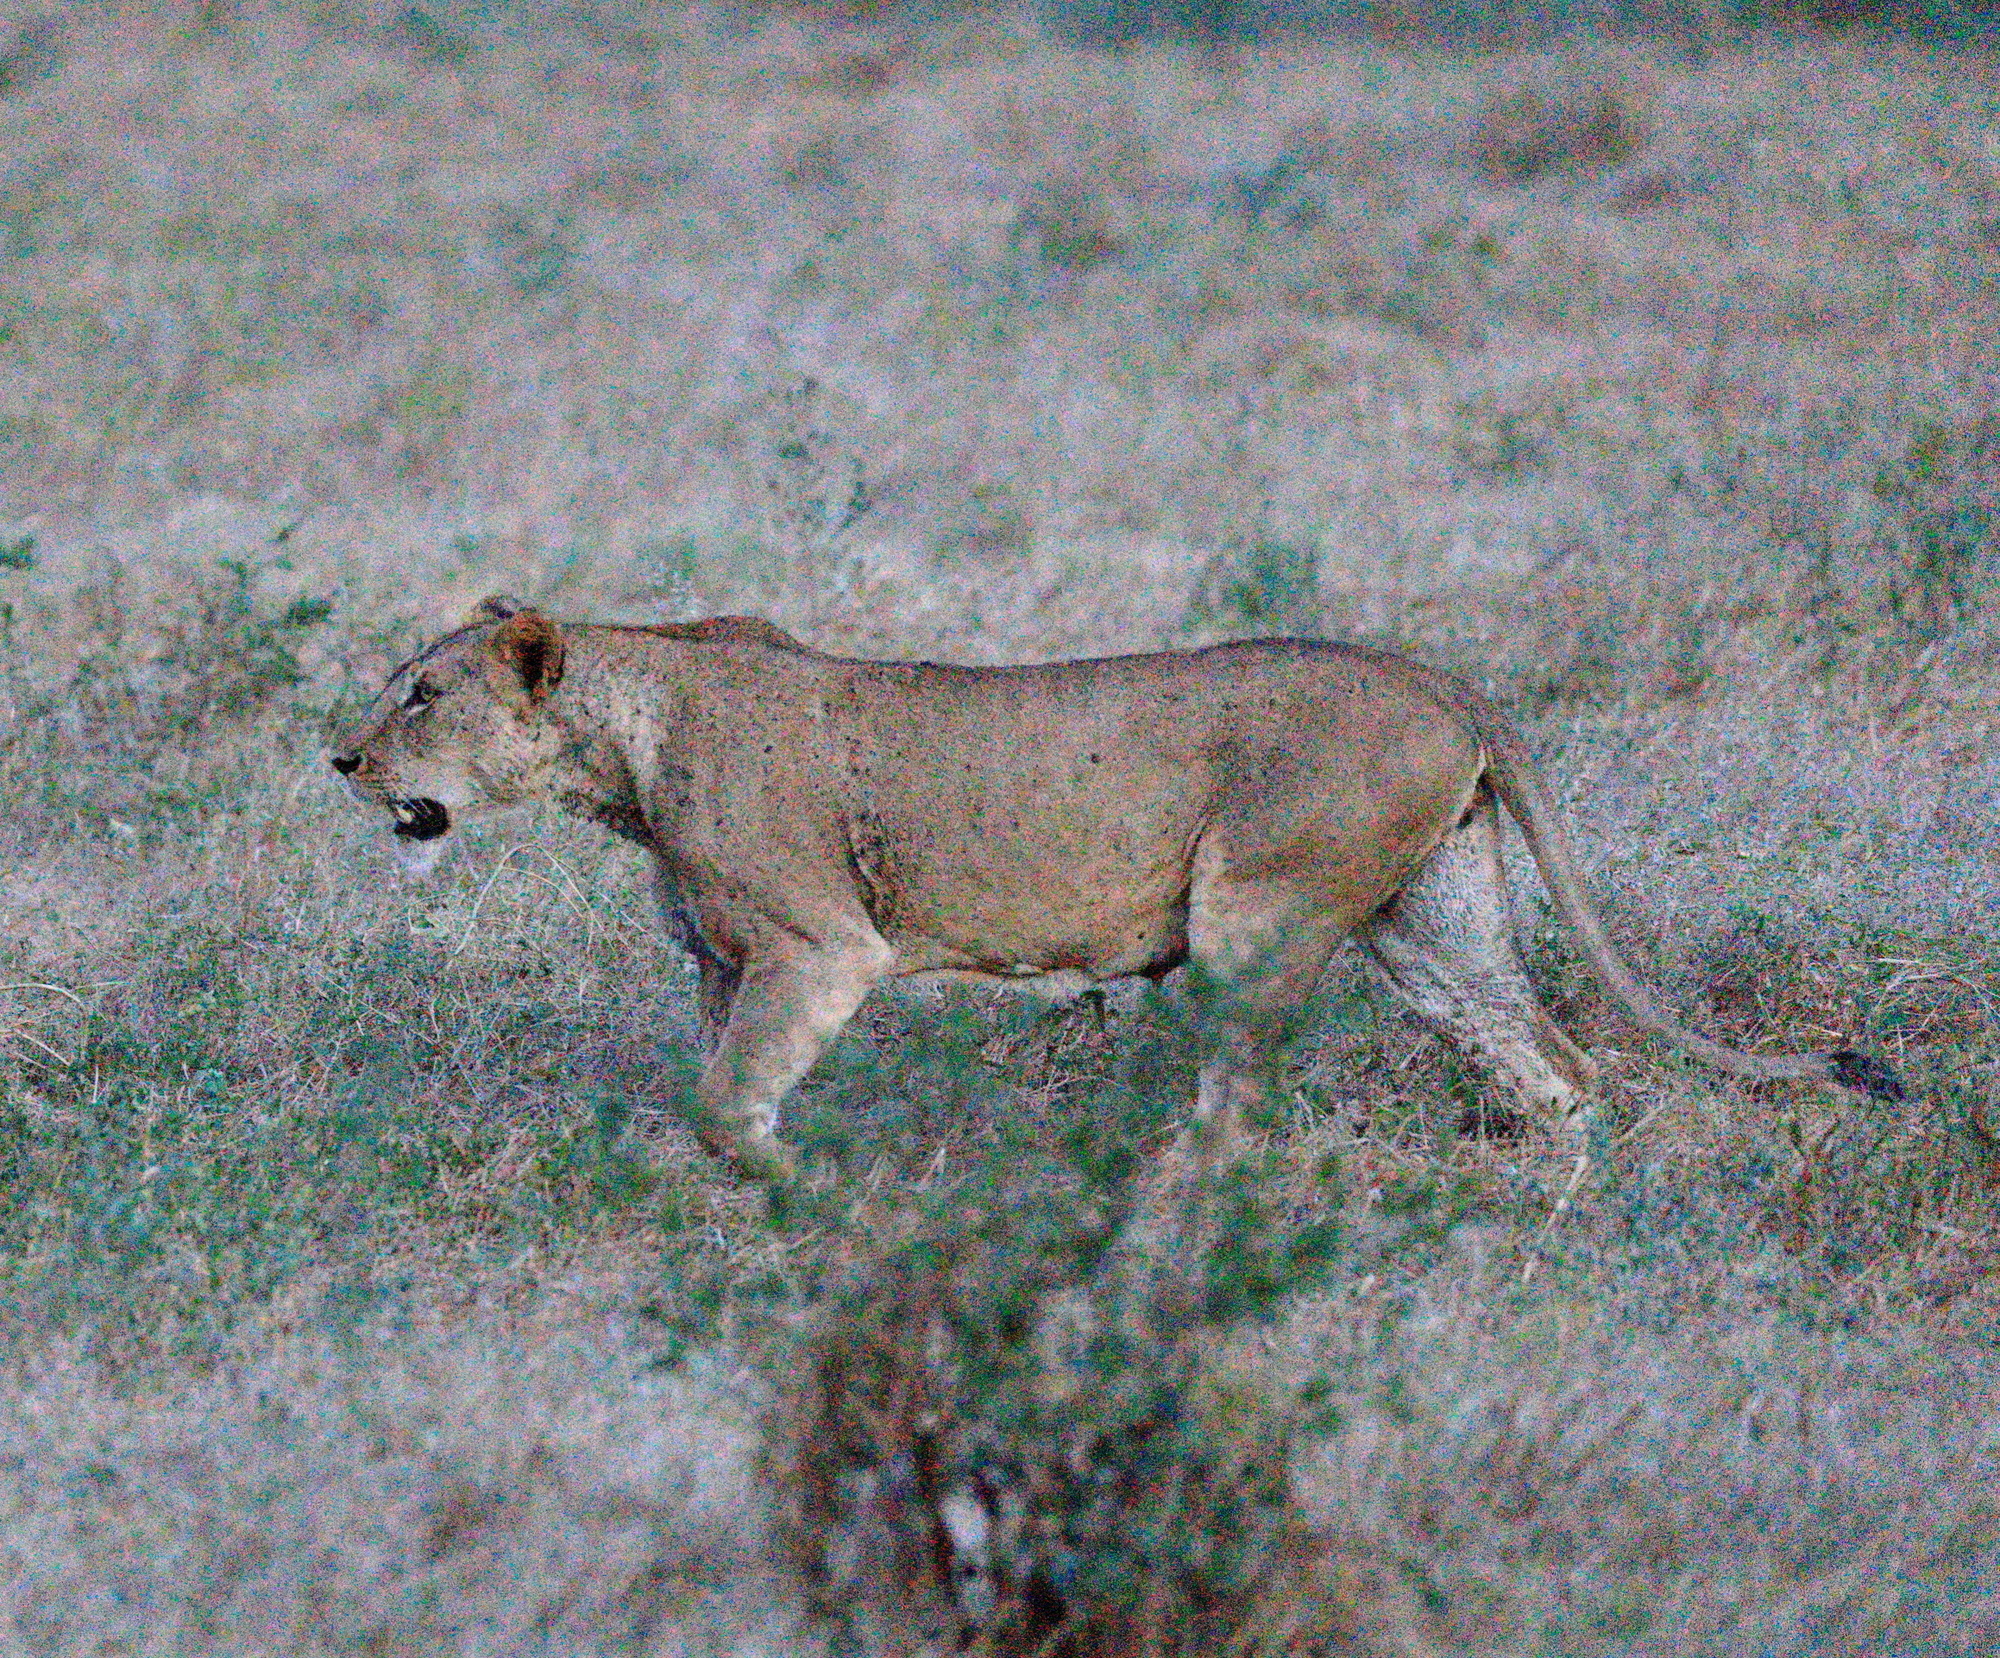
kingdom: Animalia
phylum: Chordata
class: Mammalia
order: Carnivora
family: Felidae
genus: Panthera
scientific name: Panthera leo
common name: Lion
